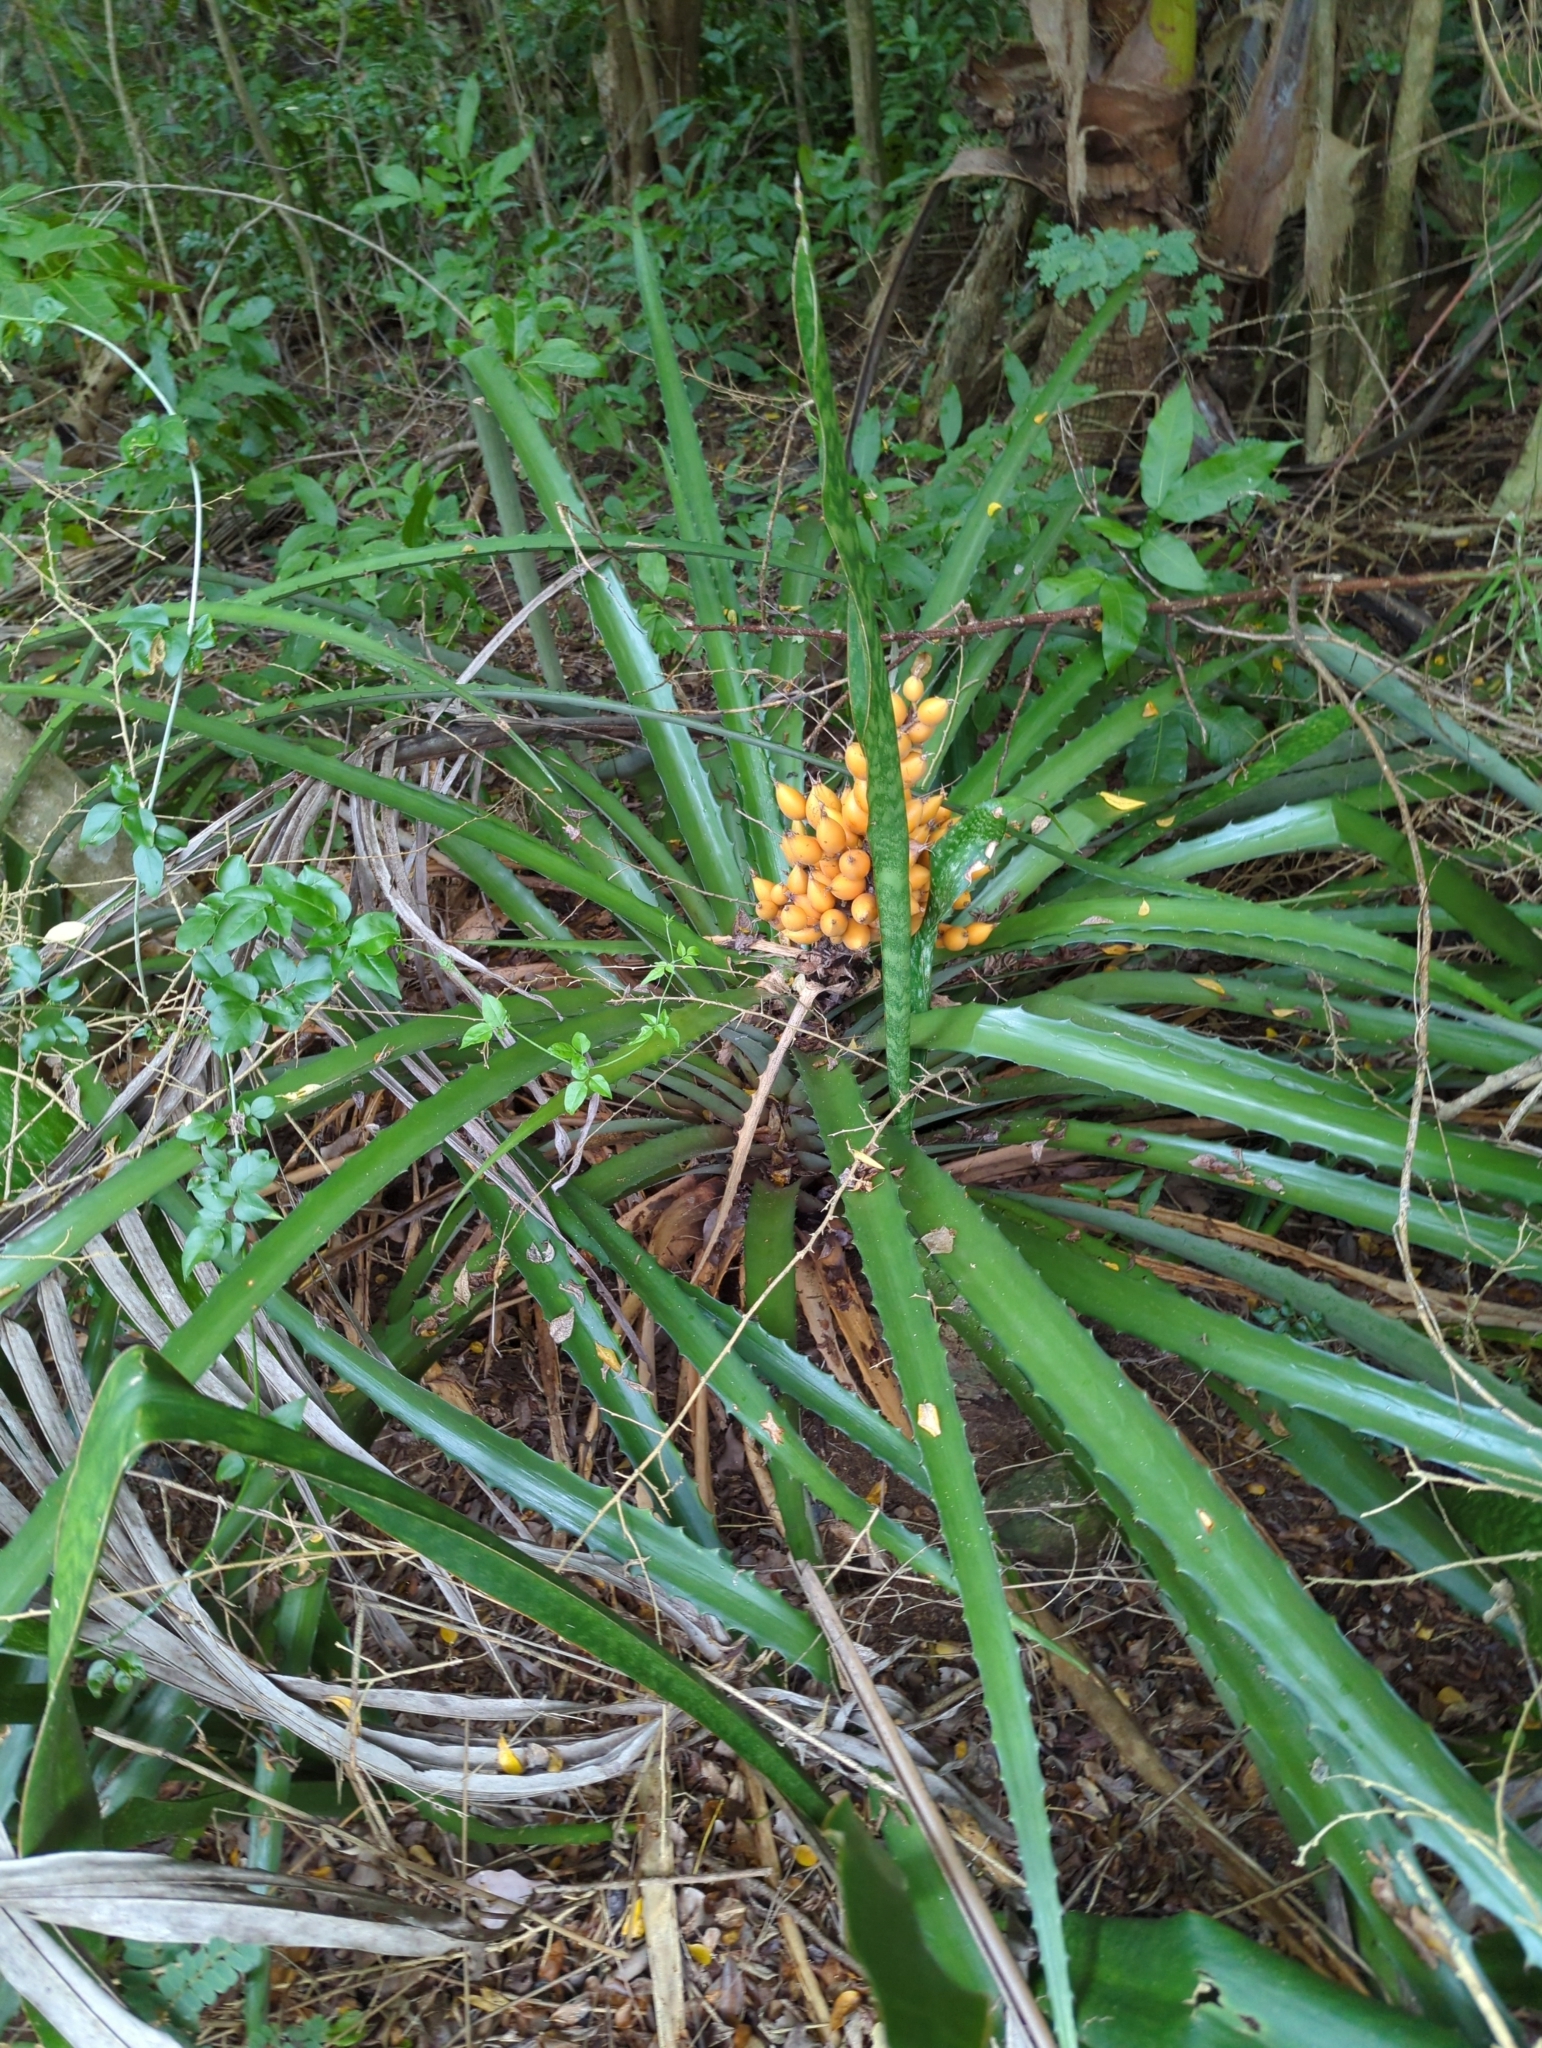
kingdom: Plantae
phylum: Tracheophyta
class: Liliopsida
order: Poales
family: Bromeliaceae
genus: Bromelia
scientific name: Bromelia pinguin
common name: Pinguin
